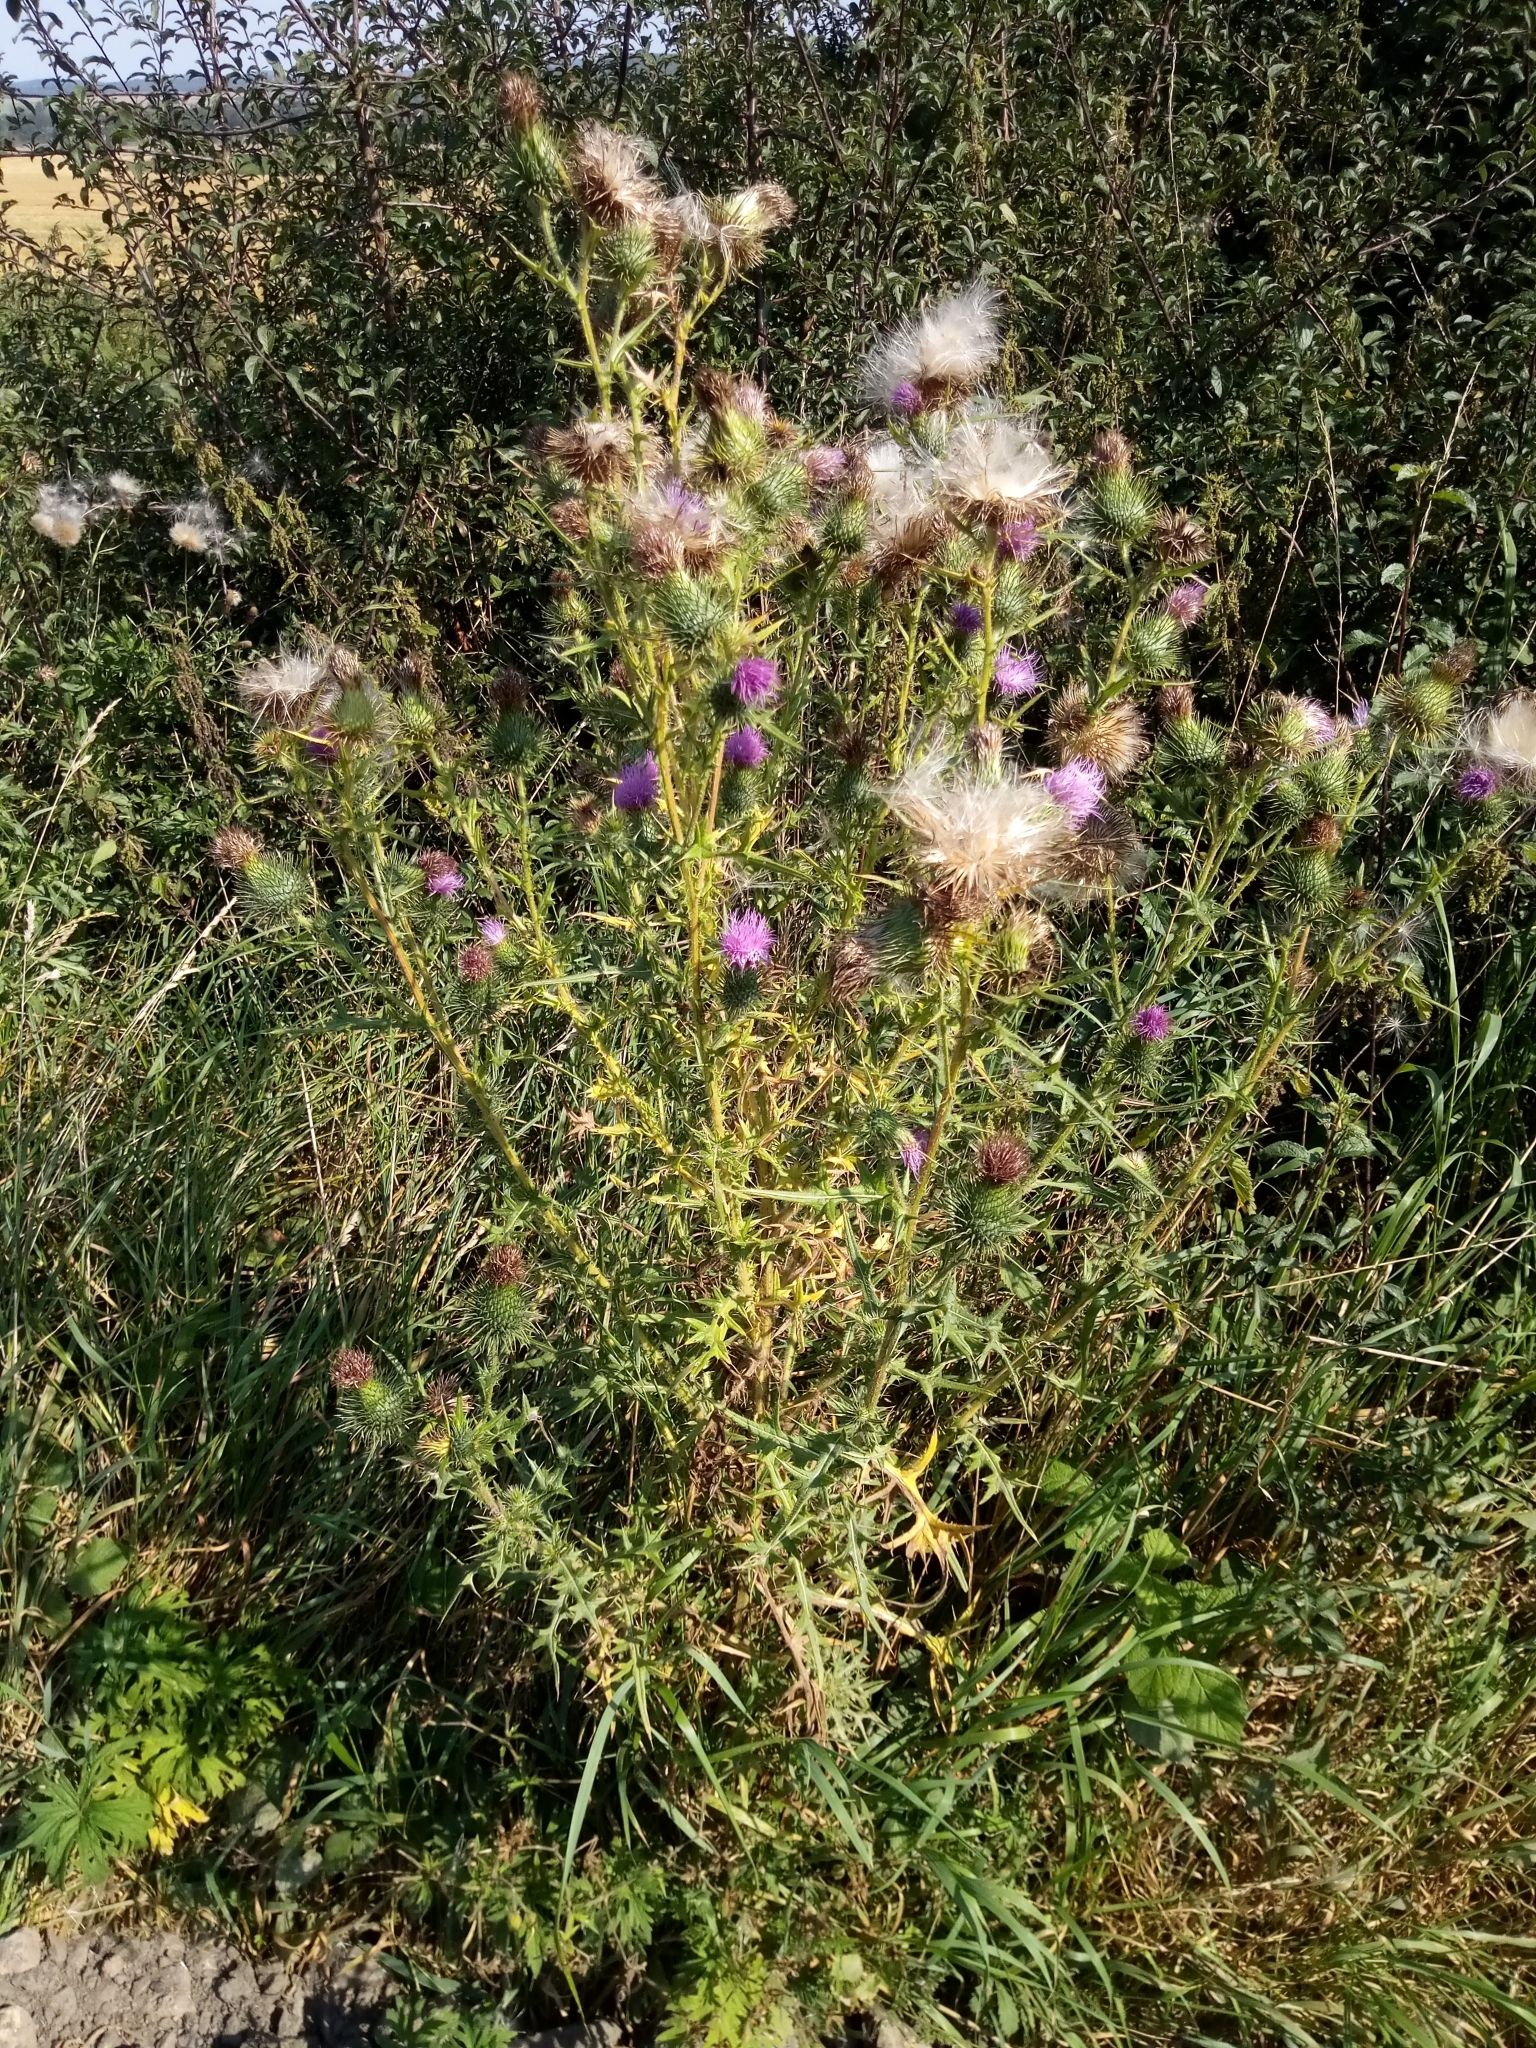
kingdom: Plantae
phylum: Tracheophyta
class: Magnoliopsida
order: Asterales
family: Asteraceae
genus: Cirsium
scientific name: Cirsium vulgare
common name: Bull thistle
